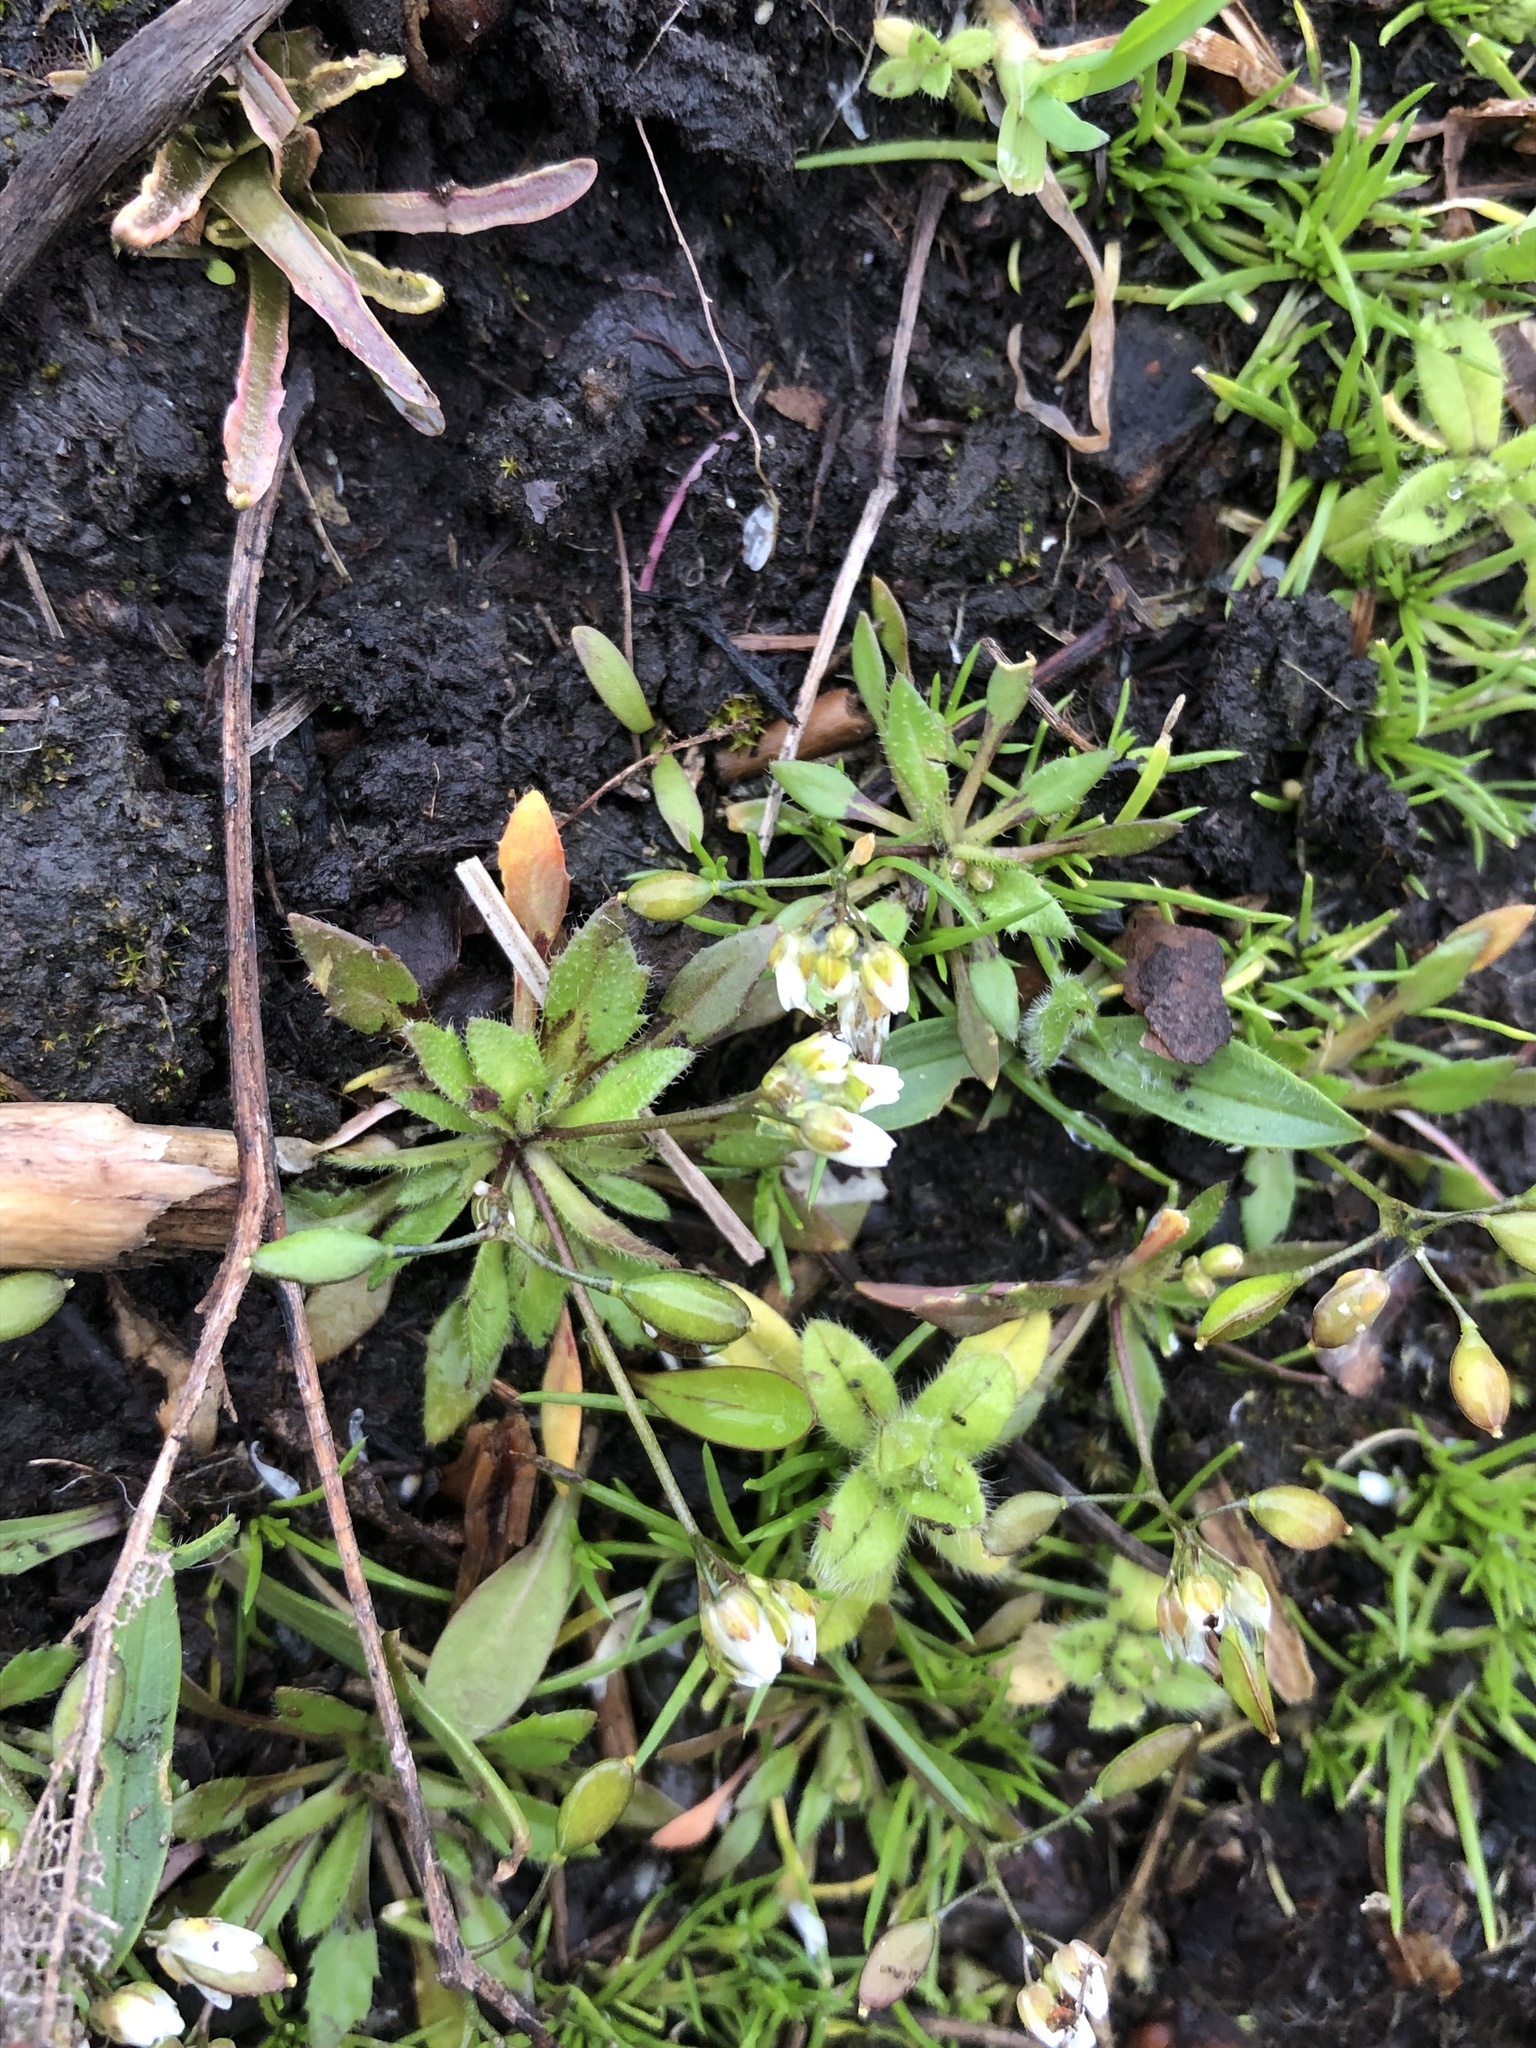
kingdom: Plantae
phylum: Tracheophyta
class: Magnoliopsida
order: Brassicales
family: Brassicaceae
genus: Draba
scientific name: Draba verna
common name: Spring draba
